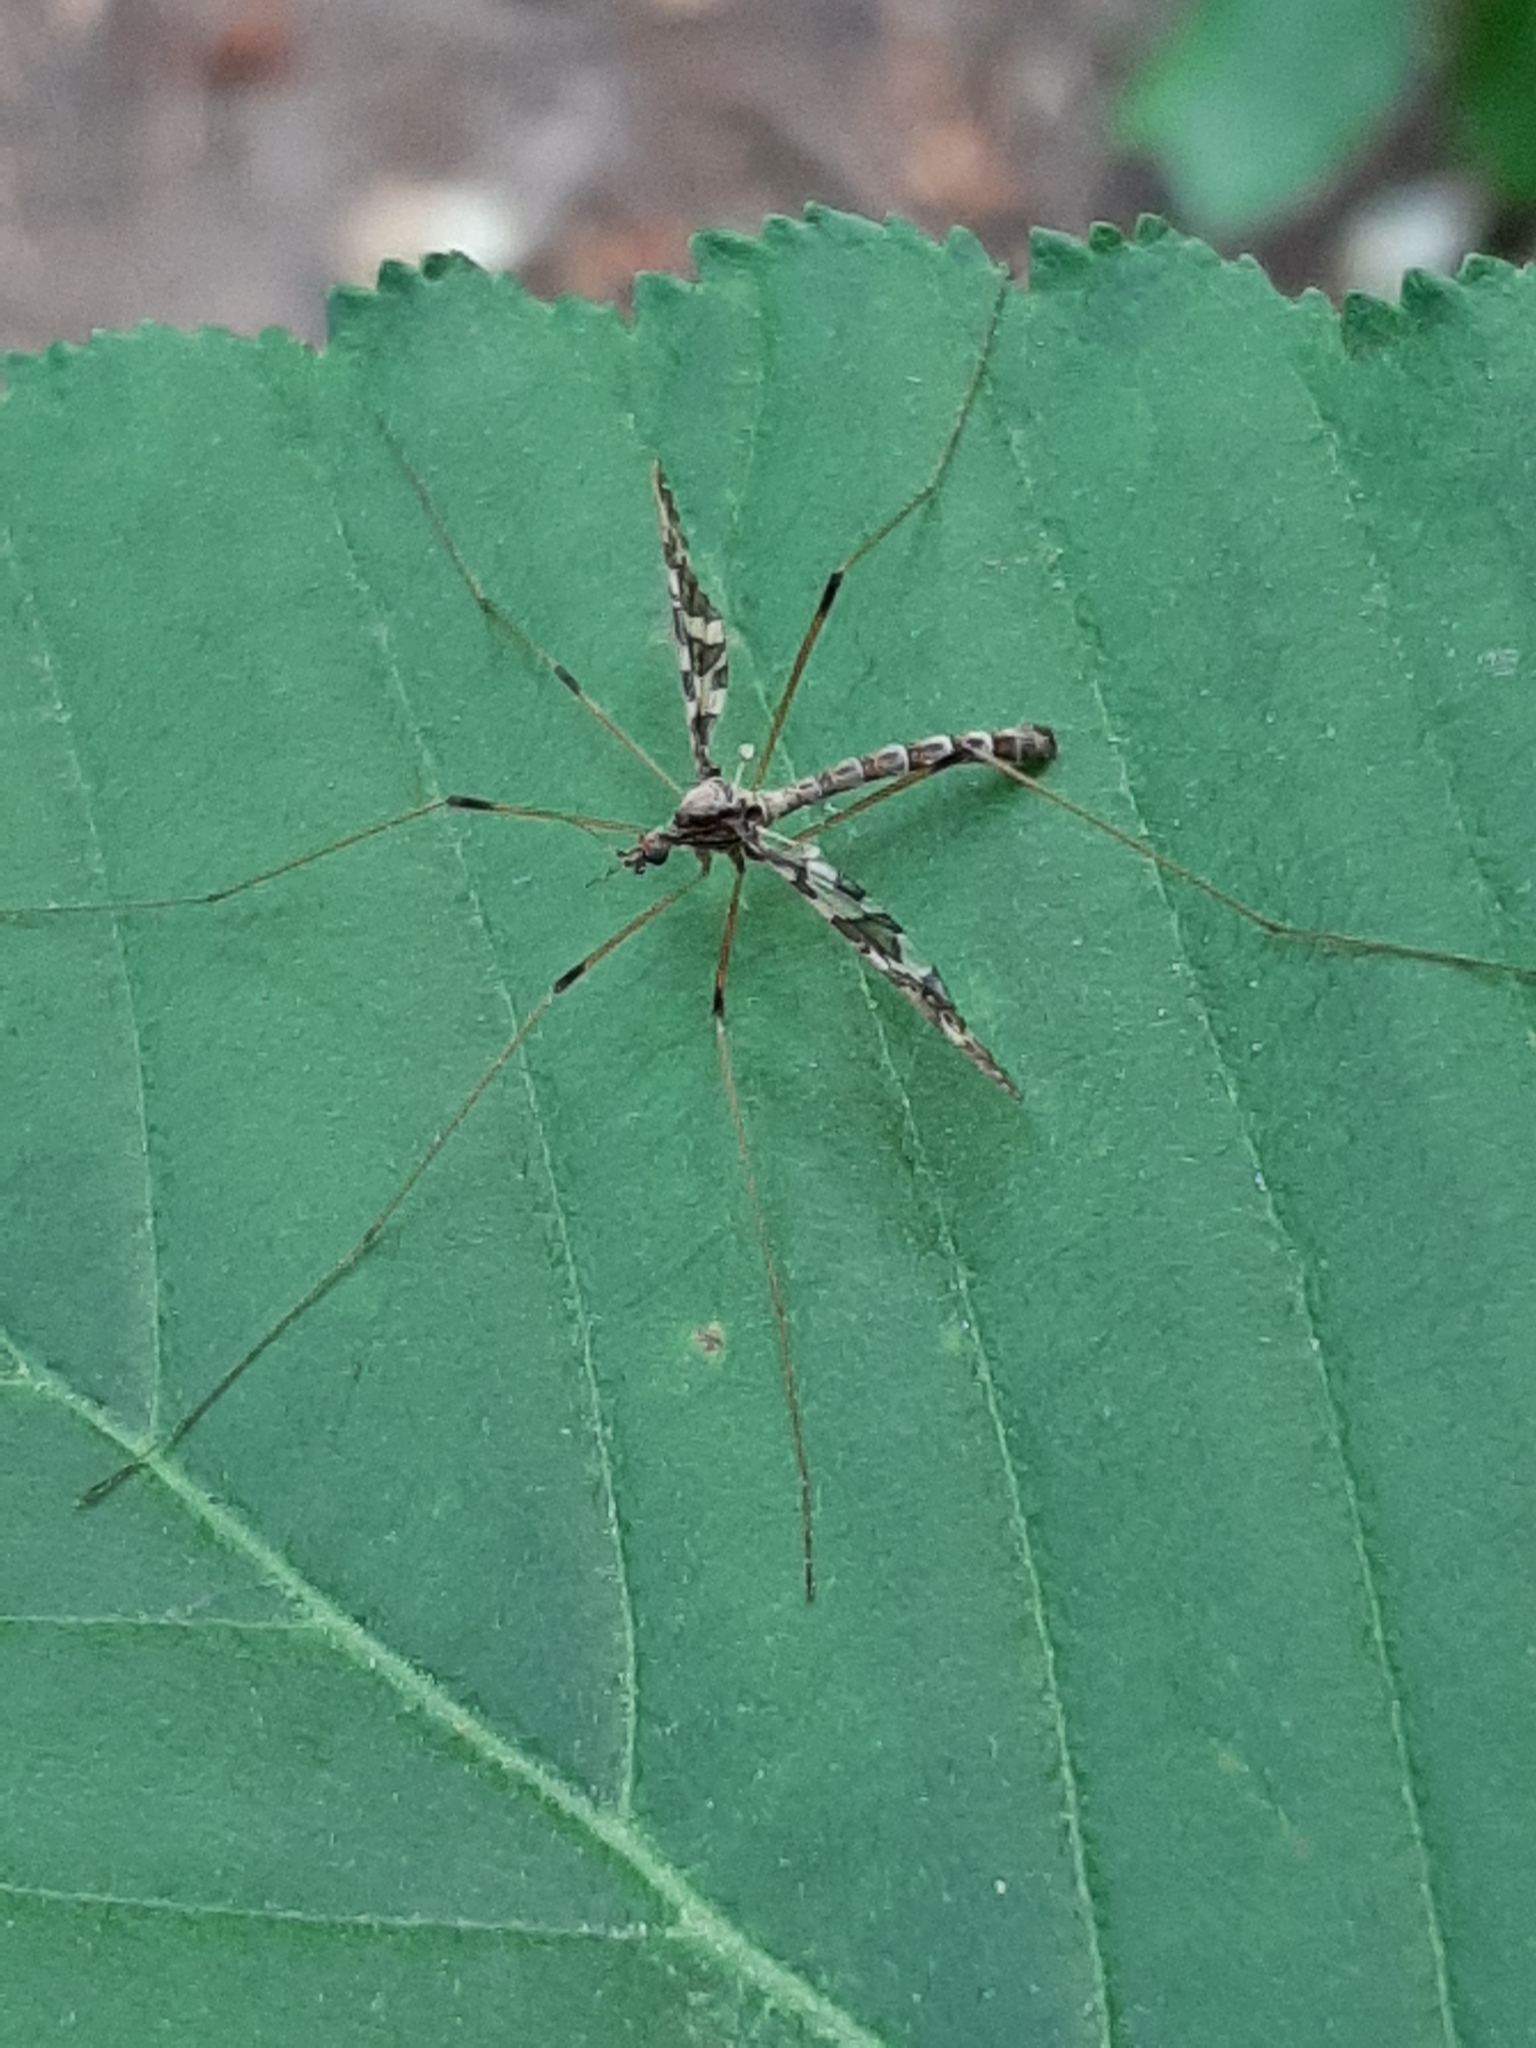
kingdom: Animalia
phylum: Arthropoda
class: Insecta
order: Diptera
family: Limoniidae
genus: Epiphragma
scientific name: Epiphragma fasciapenne
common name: Band-winged crane fly
